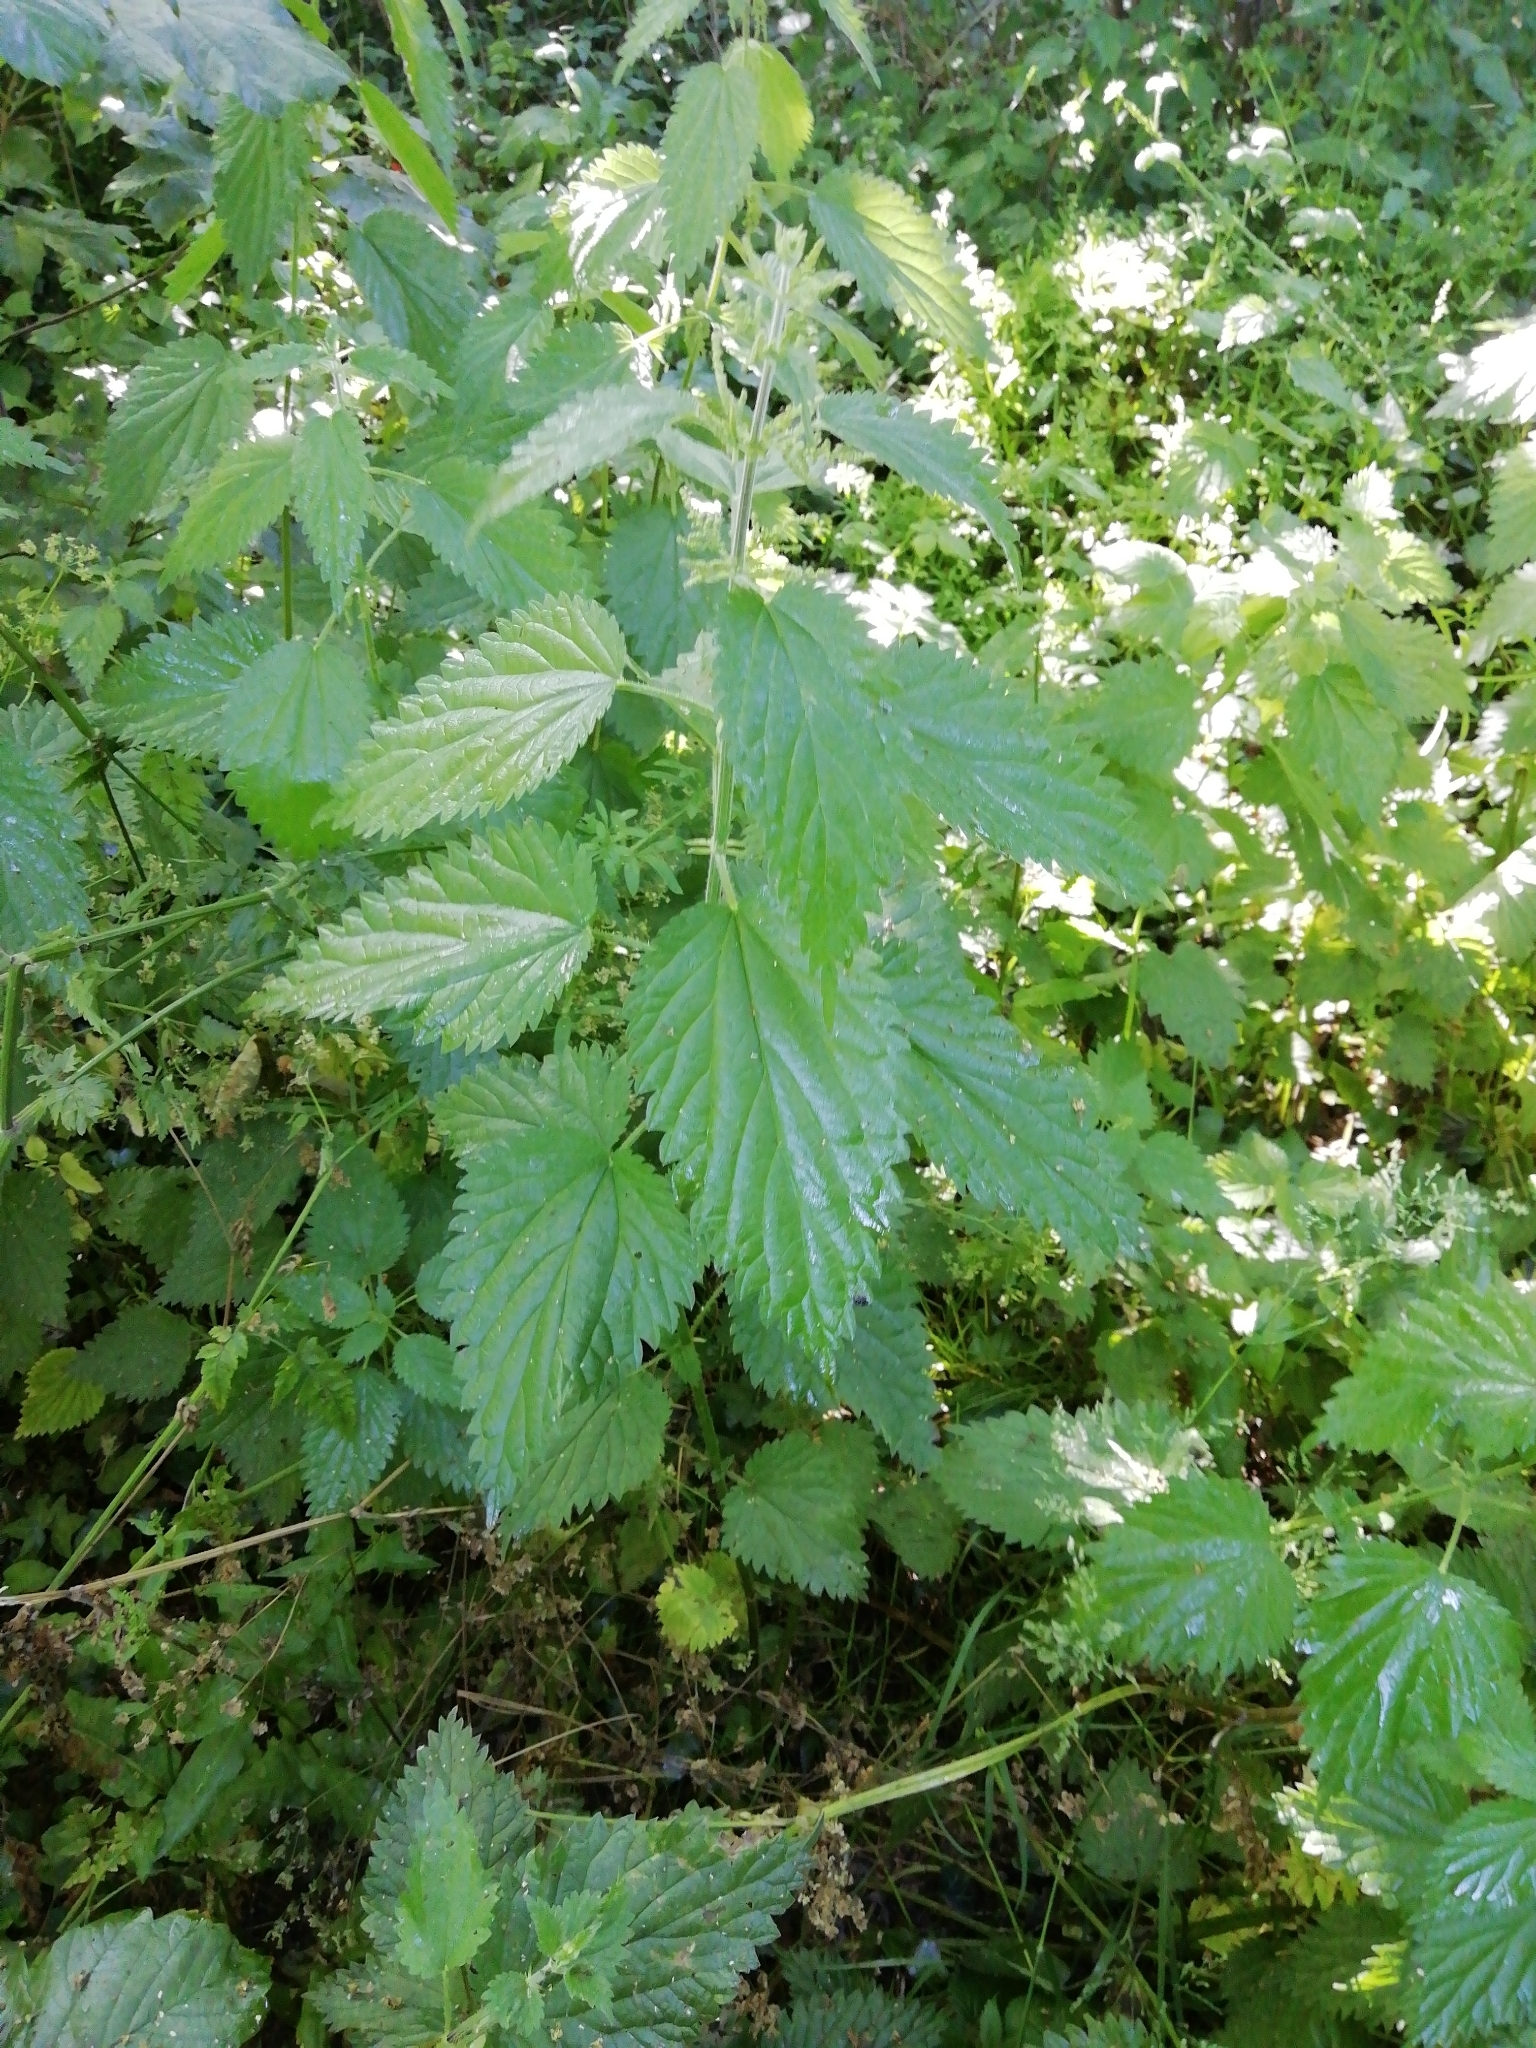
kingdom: Plantae
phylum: Tracheophyta
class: Magnoliopsida
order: Rosales
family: Urticaceae
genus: Urtica
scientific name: Urtica dioica
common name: Common nettle
